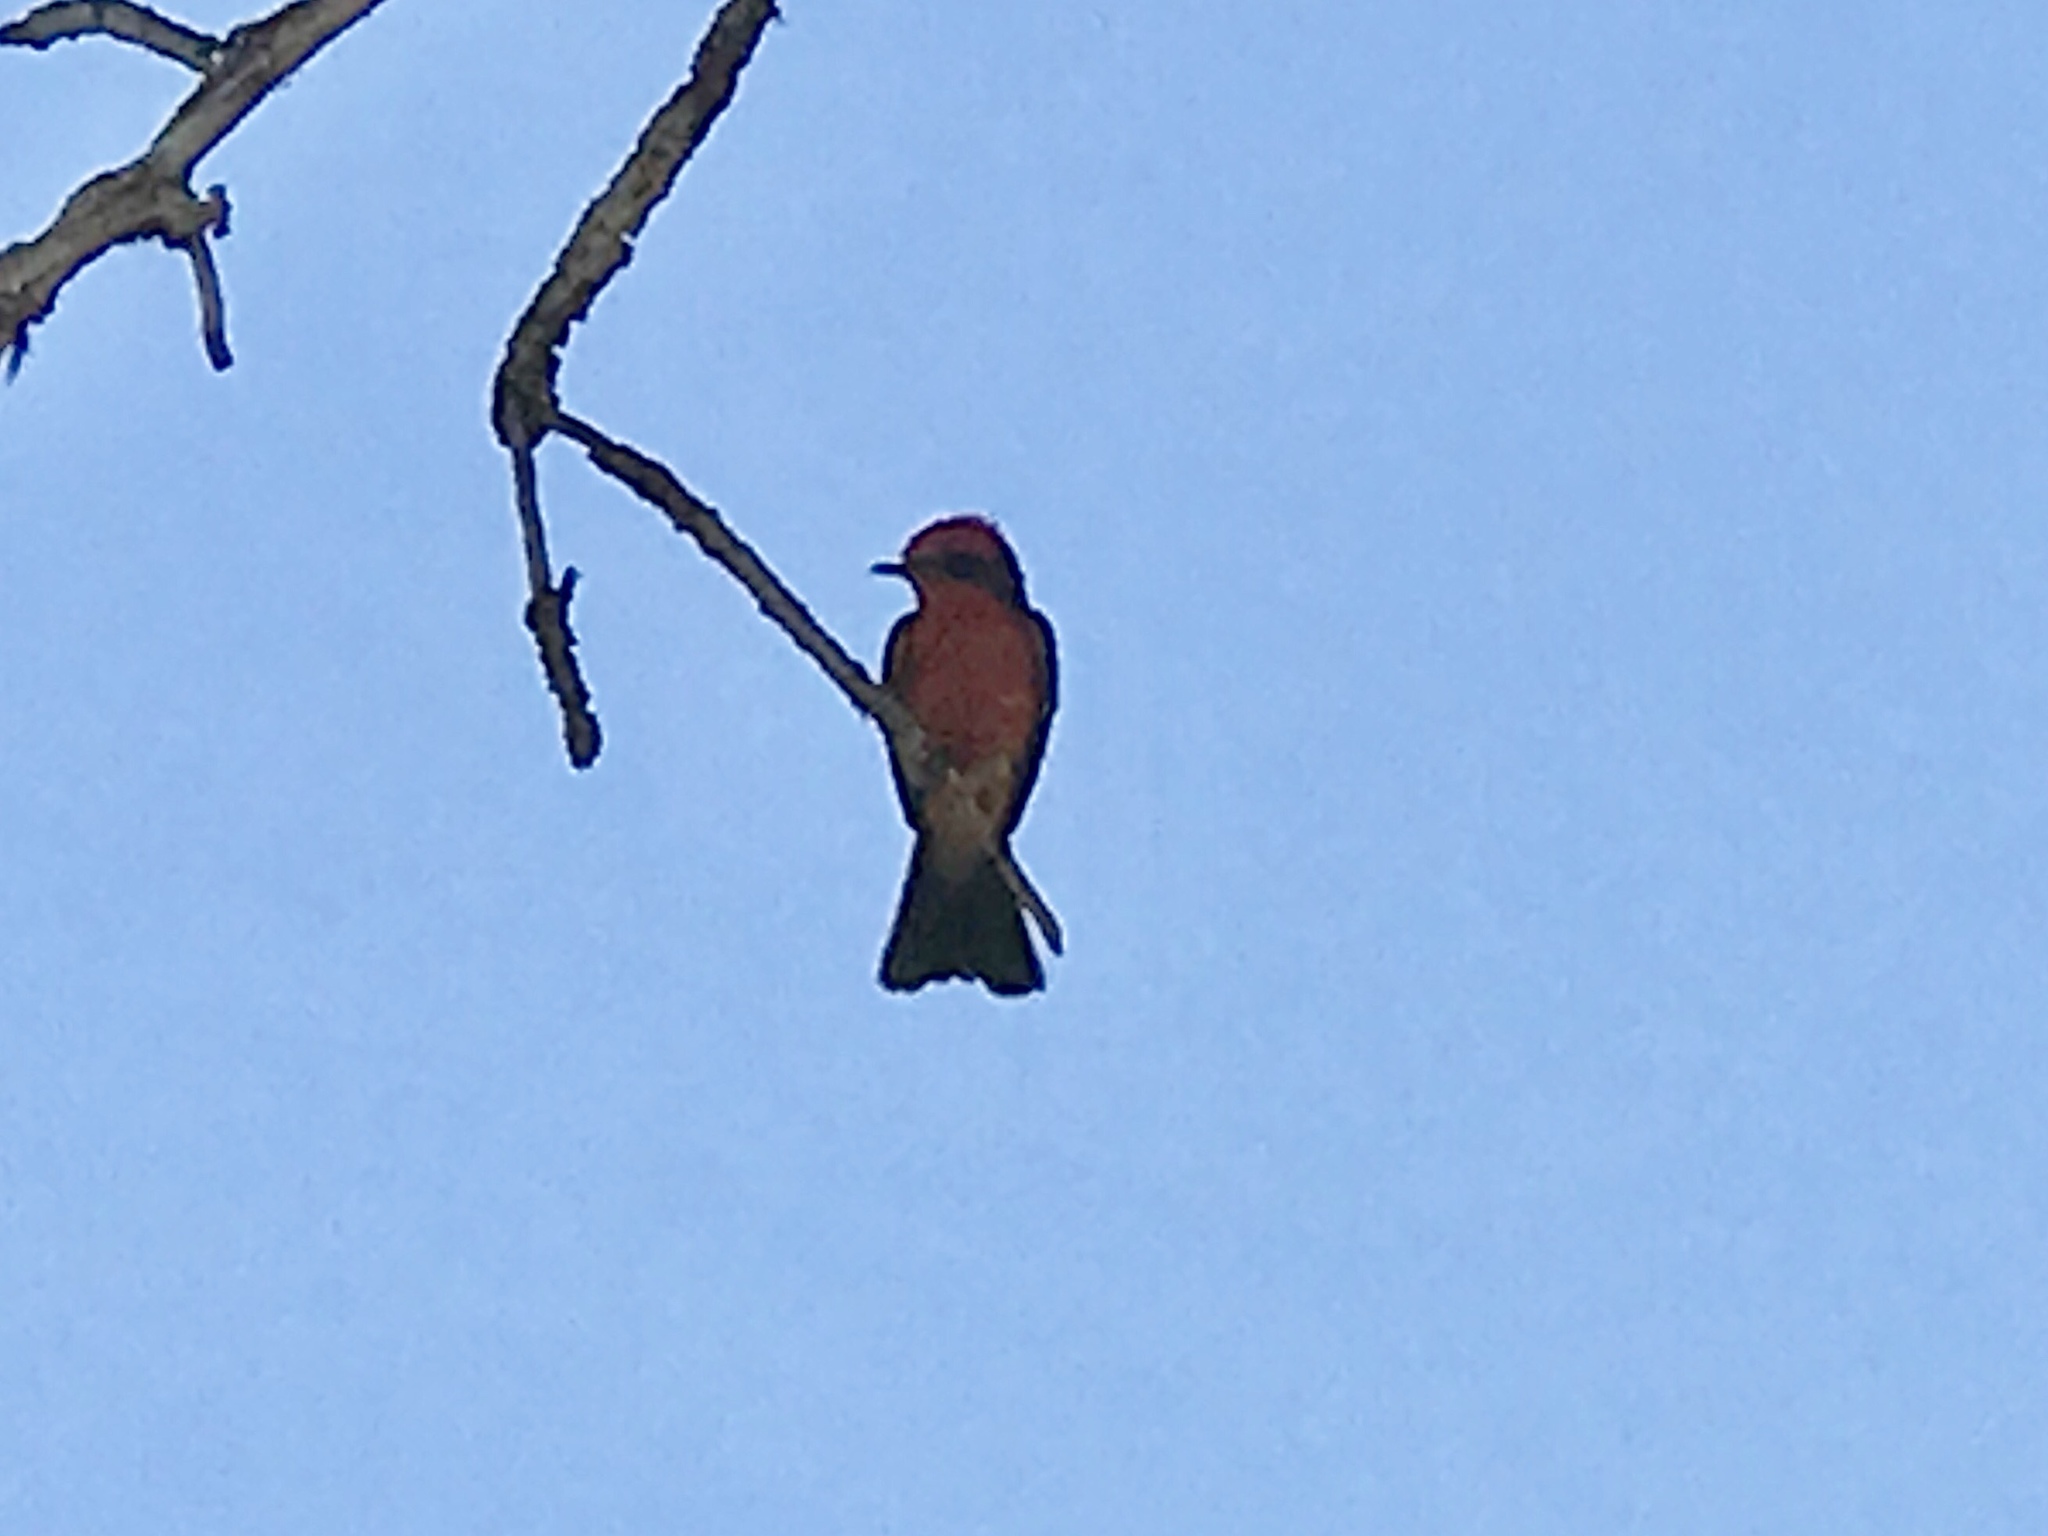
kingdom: Animalia
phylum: Chordata
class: Aves
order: Passeriformes
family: Tyrannidae
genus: Pyrocephalus
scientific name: Pyrocephalus rubinus
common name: Vermilion flycatcher
